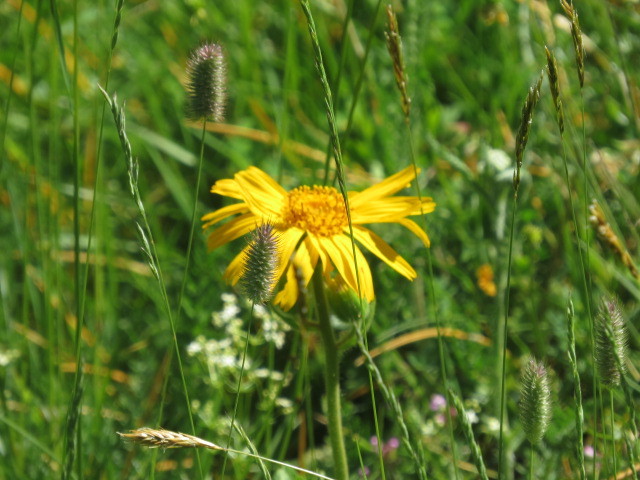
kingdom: Plantae
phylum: Tracheophyta
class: Magnoliopsida
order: Asterales
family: Asteraceae
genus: Arnica
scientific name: Arnica montana
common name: Leopard's bane
